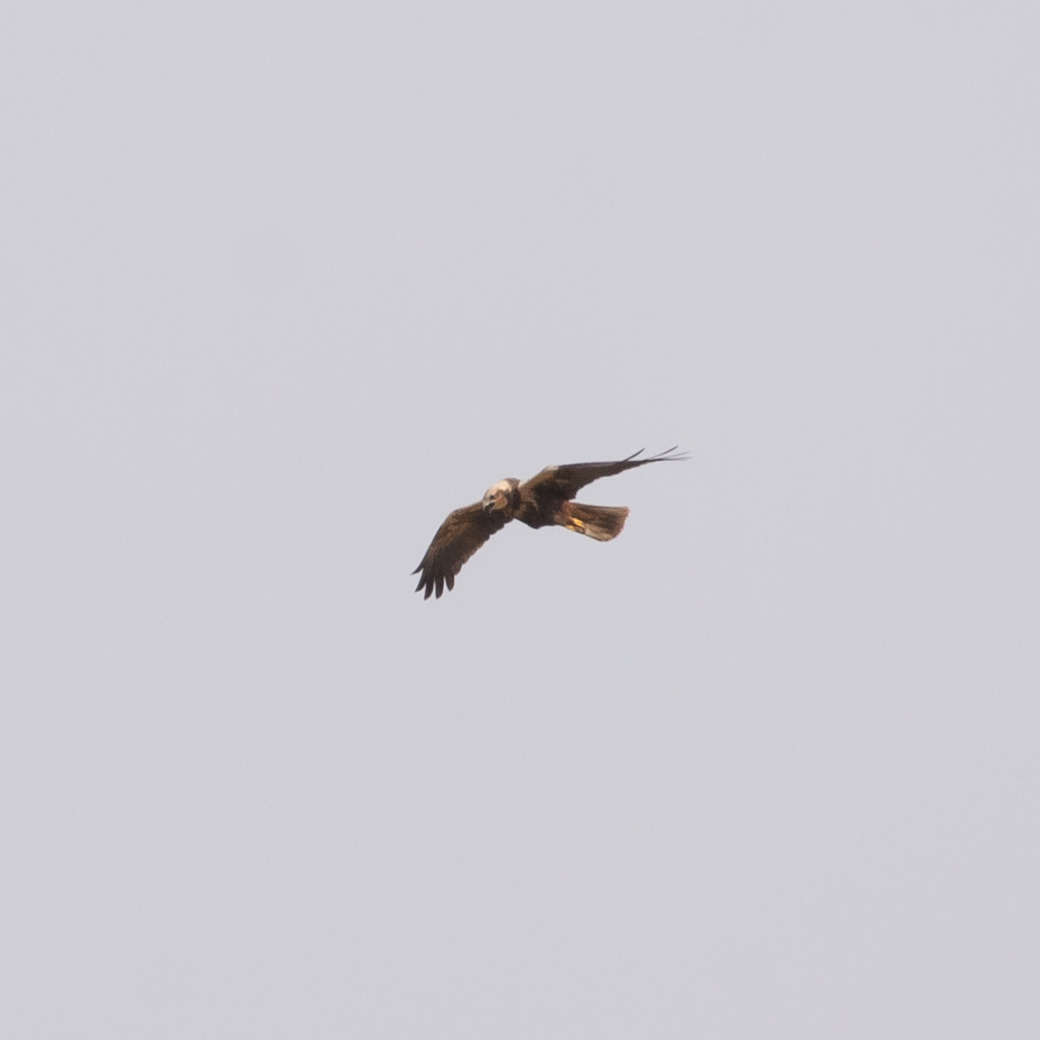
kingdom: Animalia
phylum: Chordata
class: Aves
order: Accipitriformes
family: Accipitridae
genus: Circus
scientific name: Circus aeruginosus
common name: Western marsh harrier
